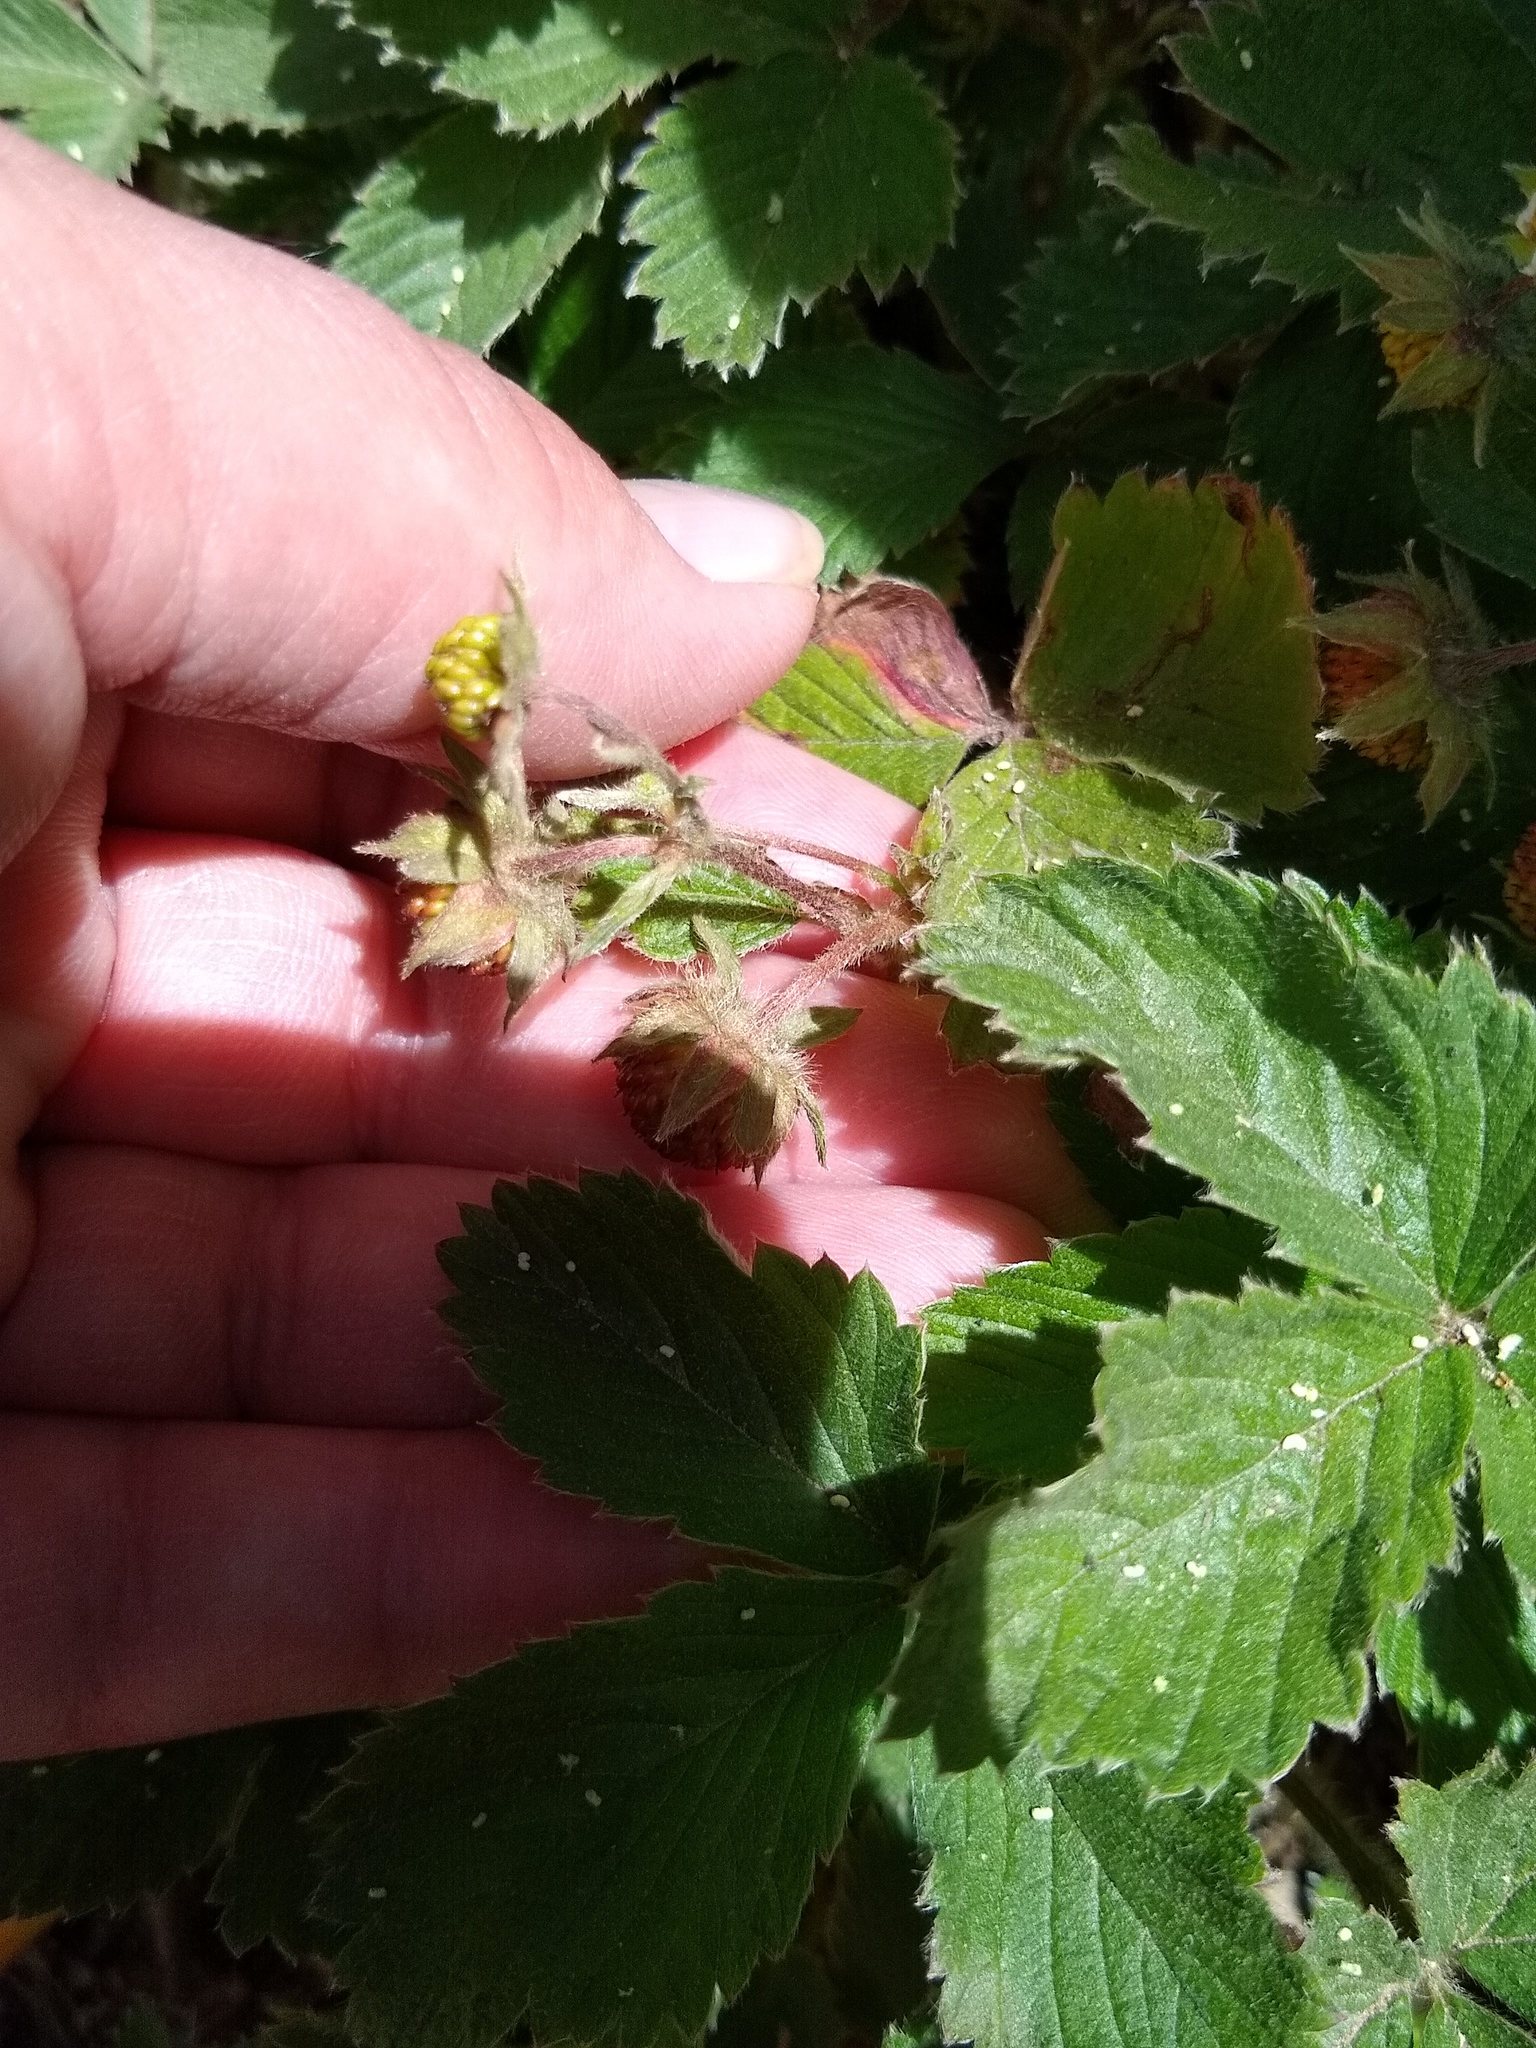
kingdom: Plantae
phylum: Tracheophyta
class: Magnoliopsida
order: Rosales
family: Rosaceae
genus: Fragaria
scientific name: Fragaria vesca
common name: Wild strawberry
